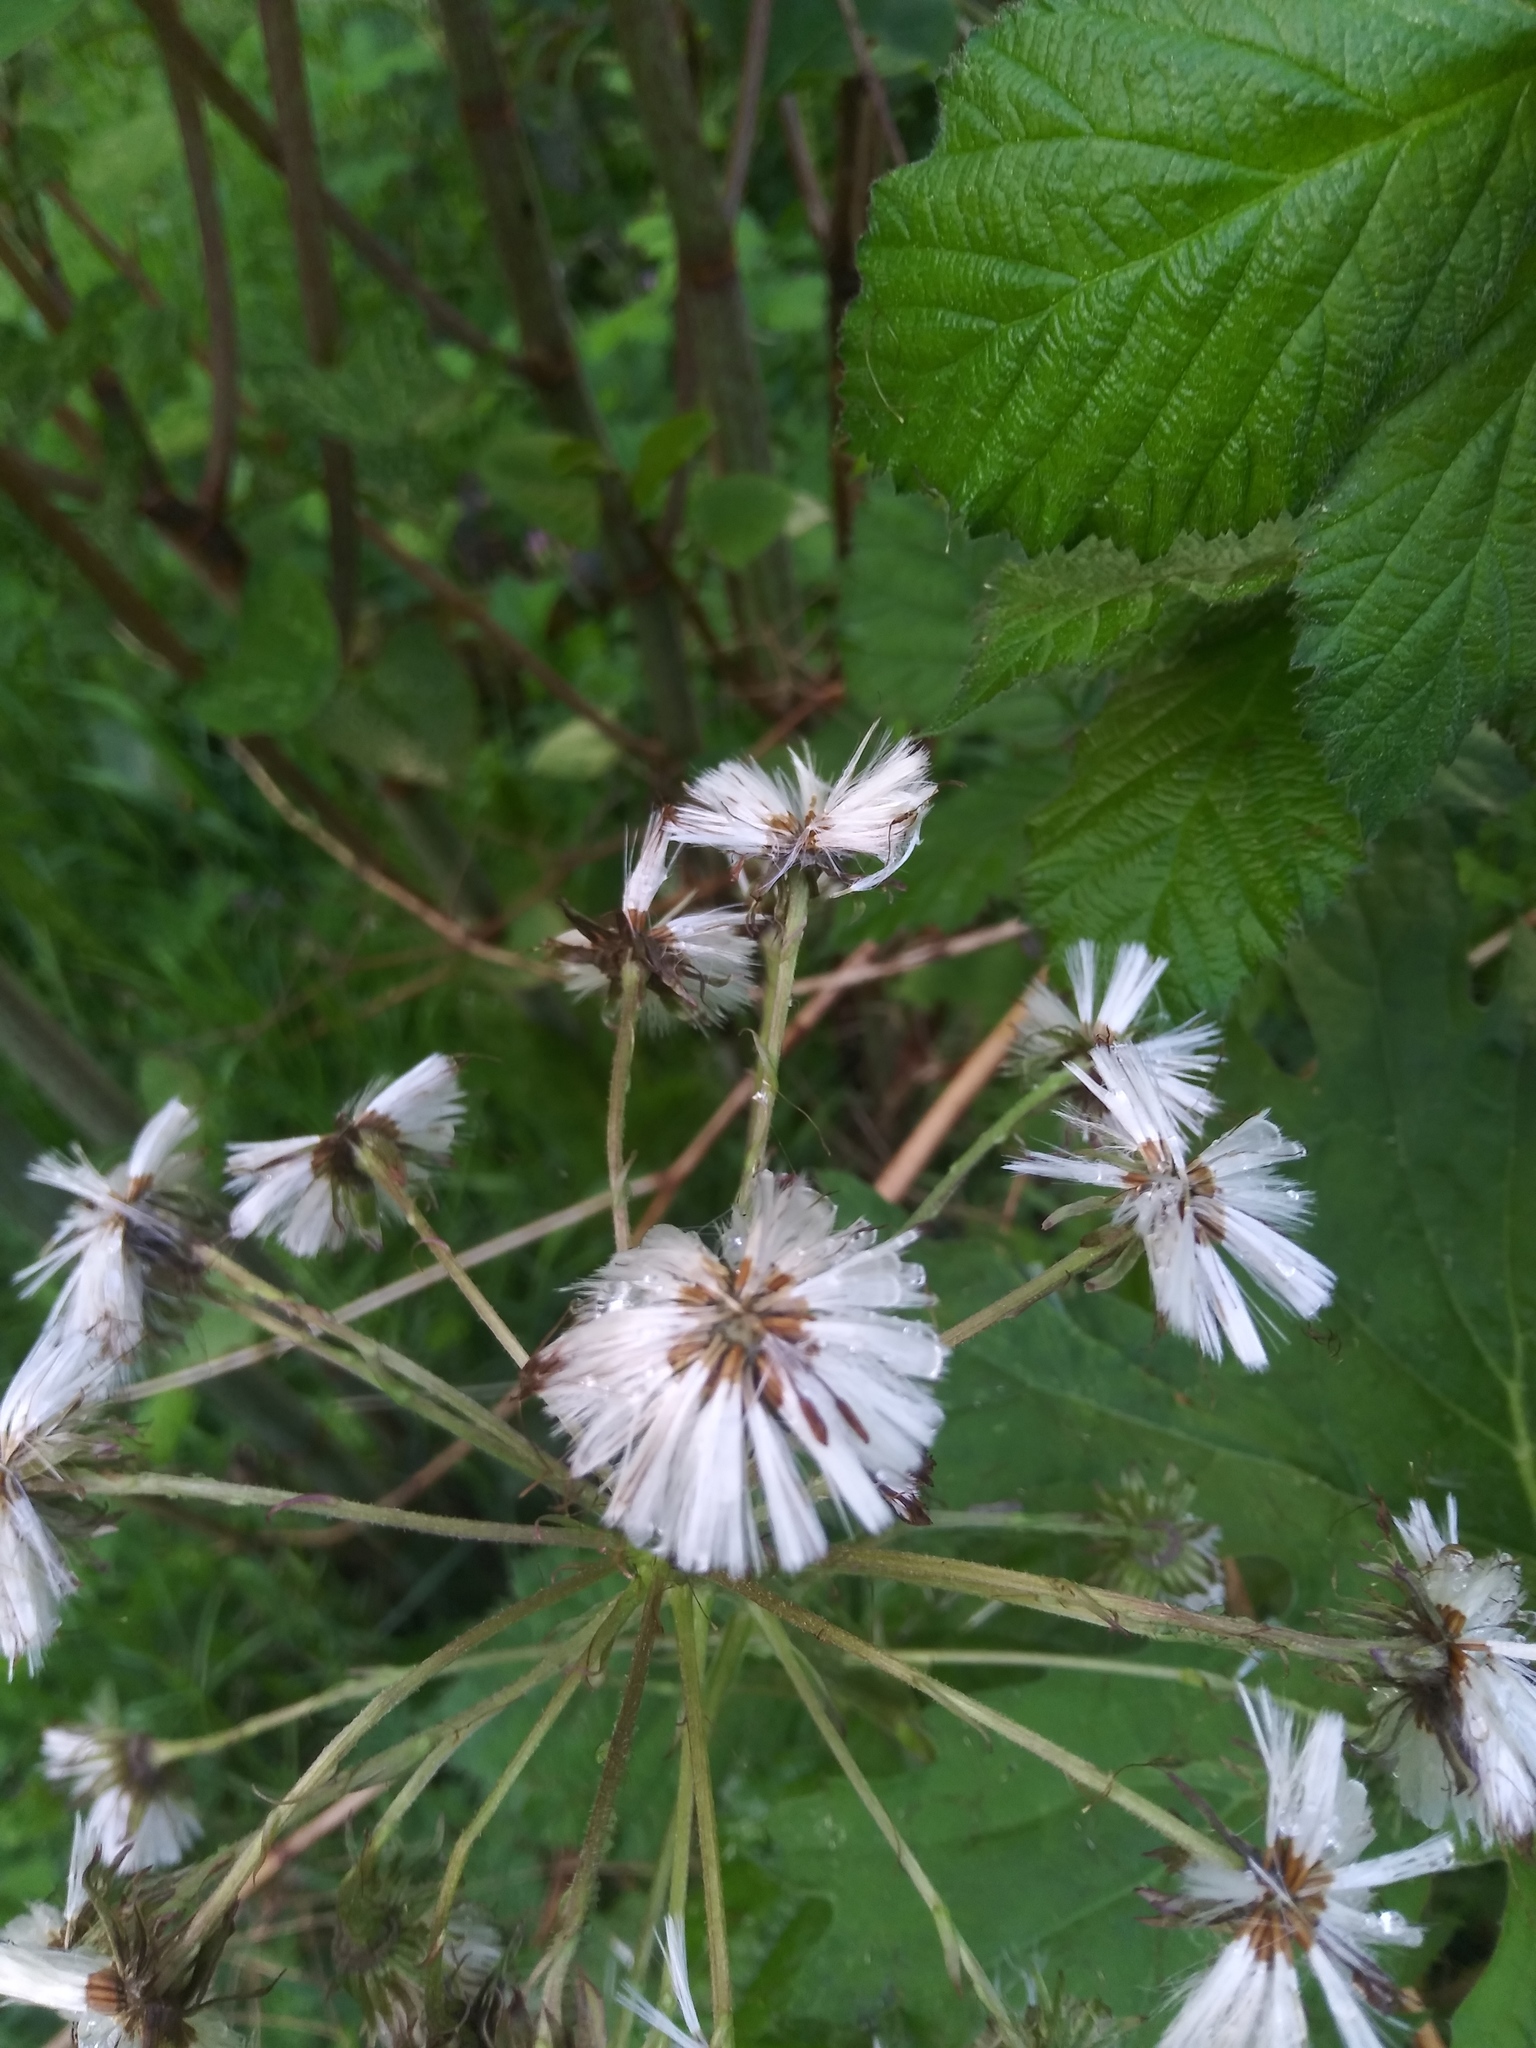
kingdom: Plantae
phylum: Tracheophyta
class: Magnoliopsida
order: Asterales
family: Asteraceae
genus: Petasites
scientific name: Petasites frigidus
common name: Arctic butterbur
